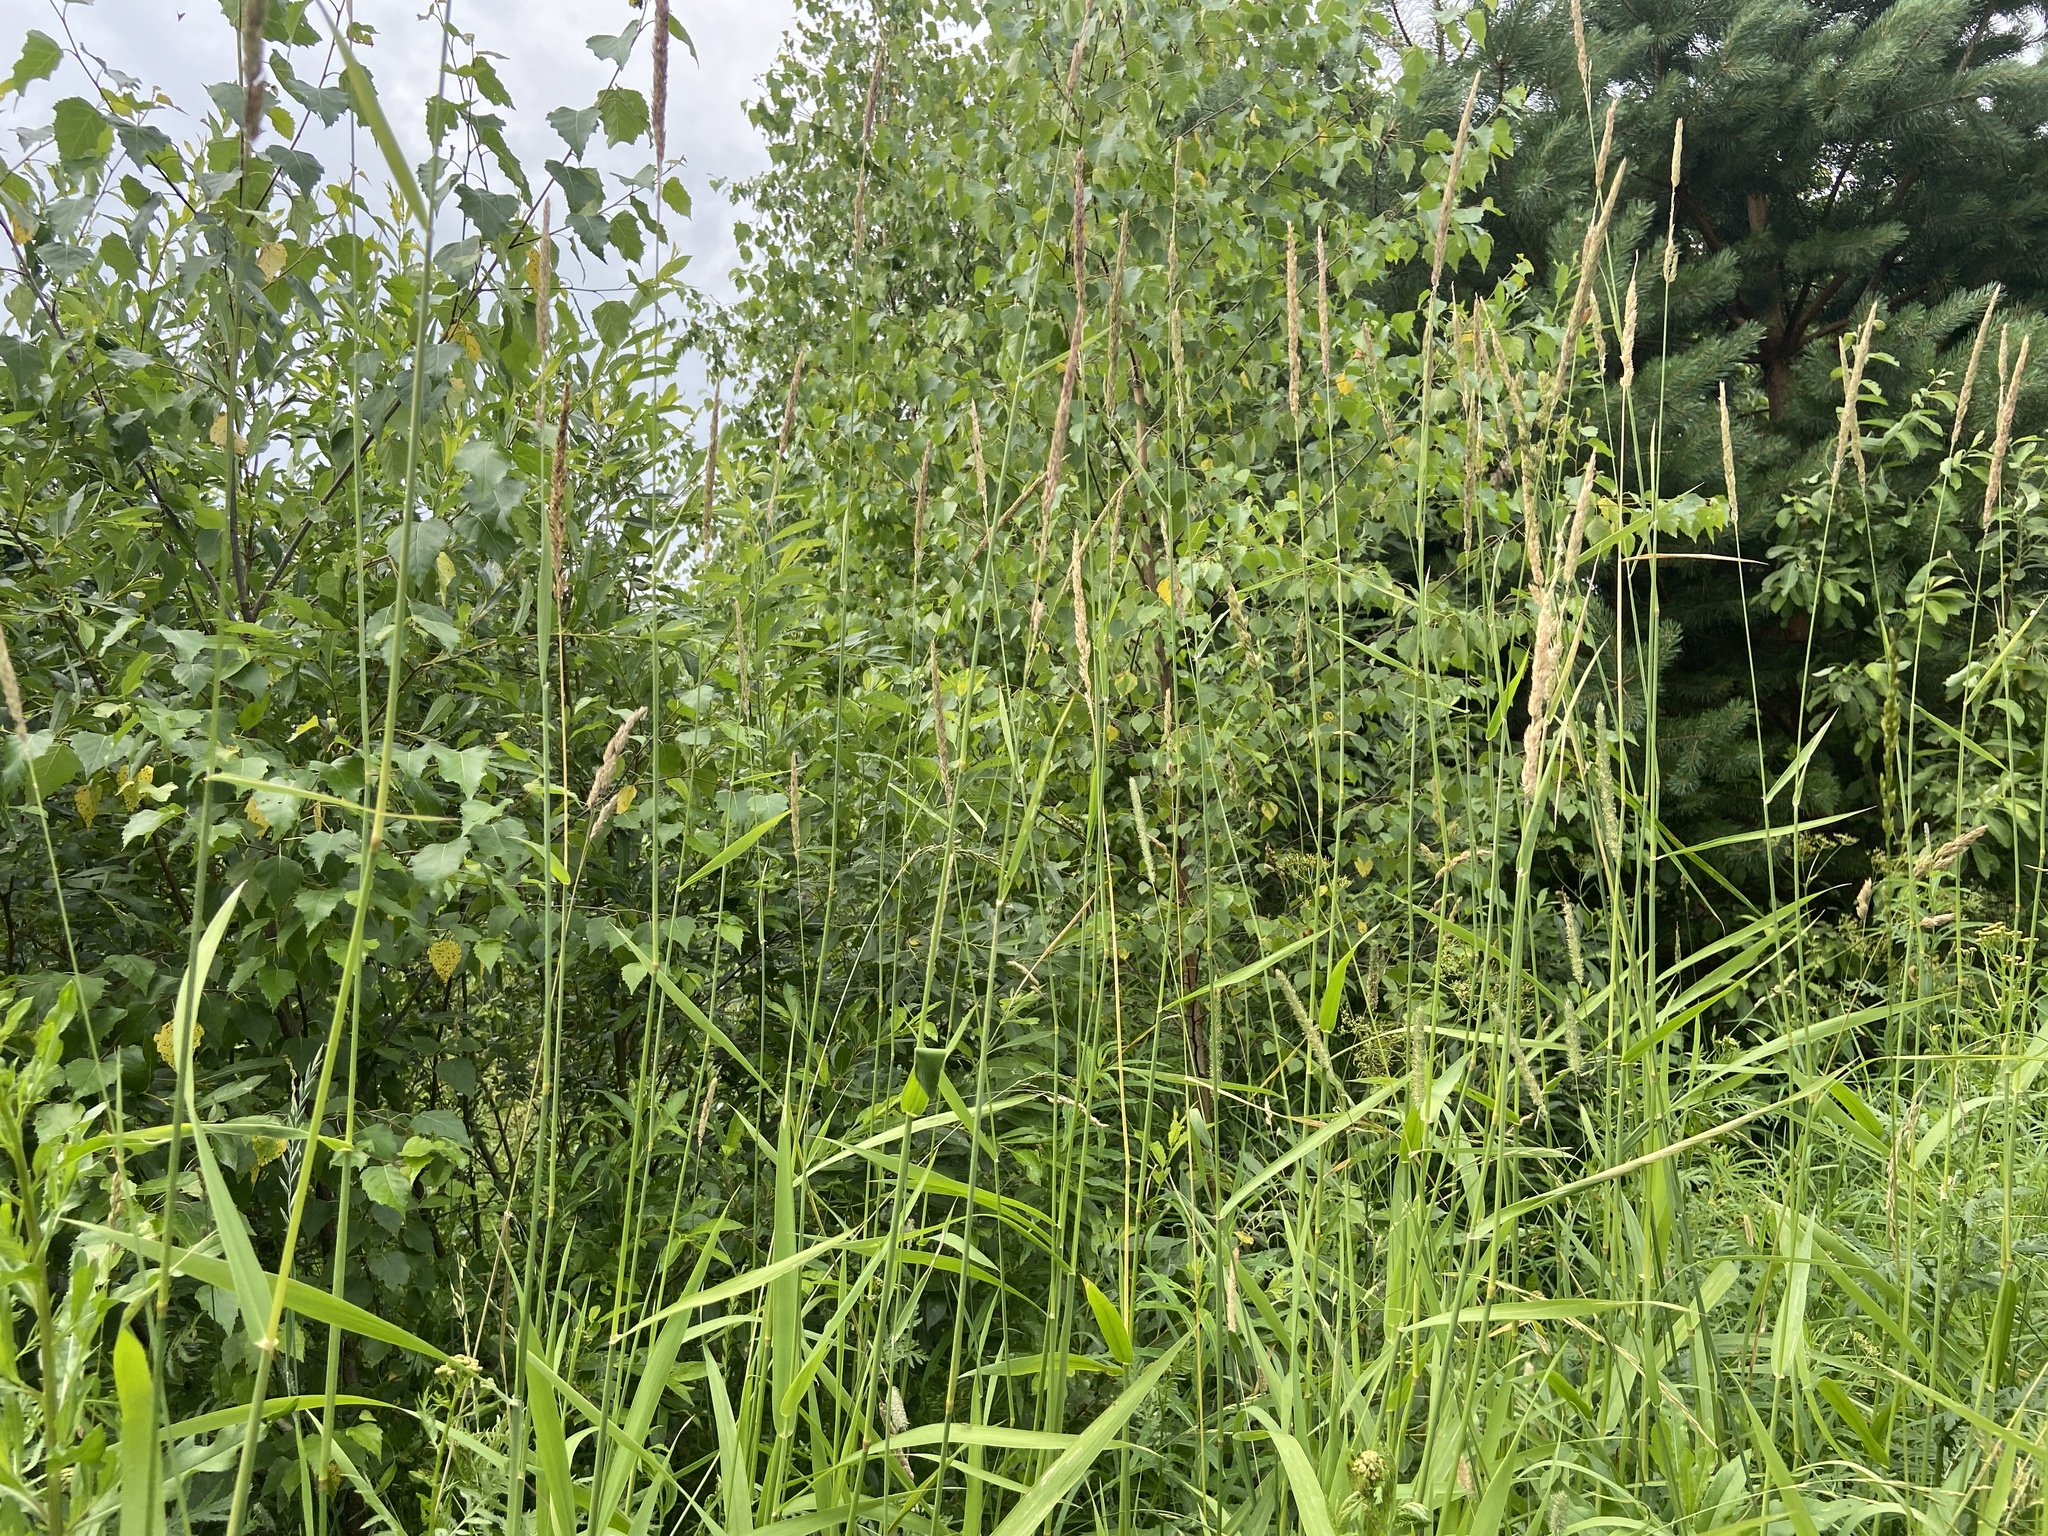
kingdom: Plantae
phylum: Tracheophyta
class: Liliopsida
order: Poales
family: Poaceae
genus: Phalaris
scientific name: Phalaris arundinacea
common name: Reed canary-grass
